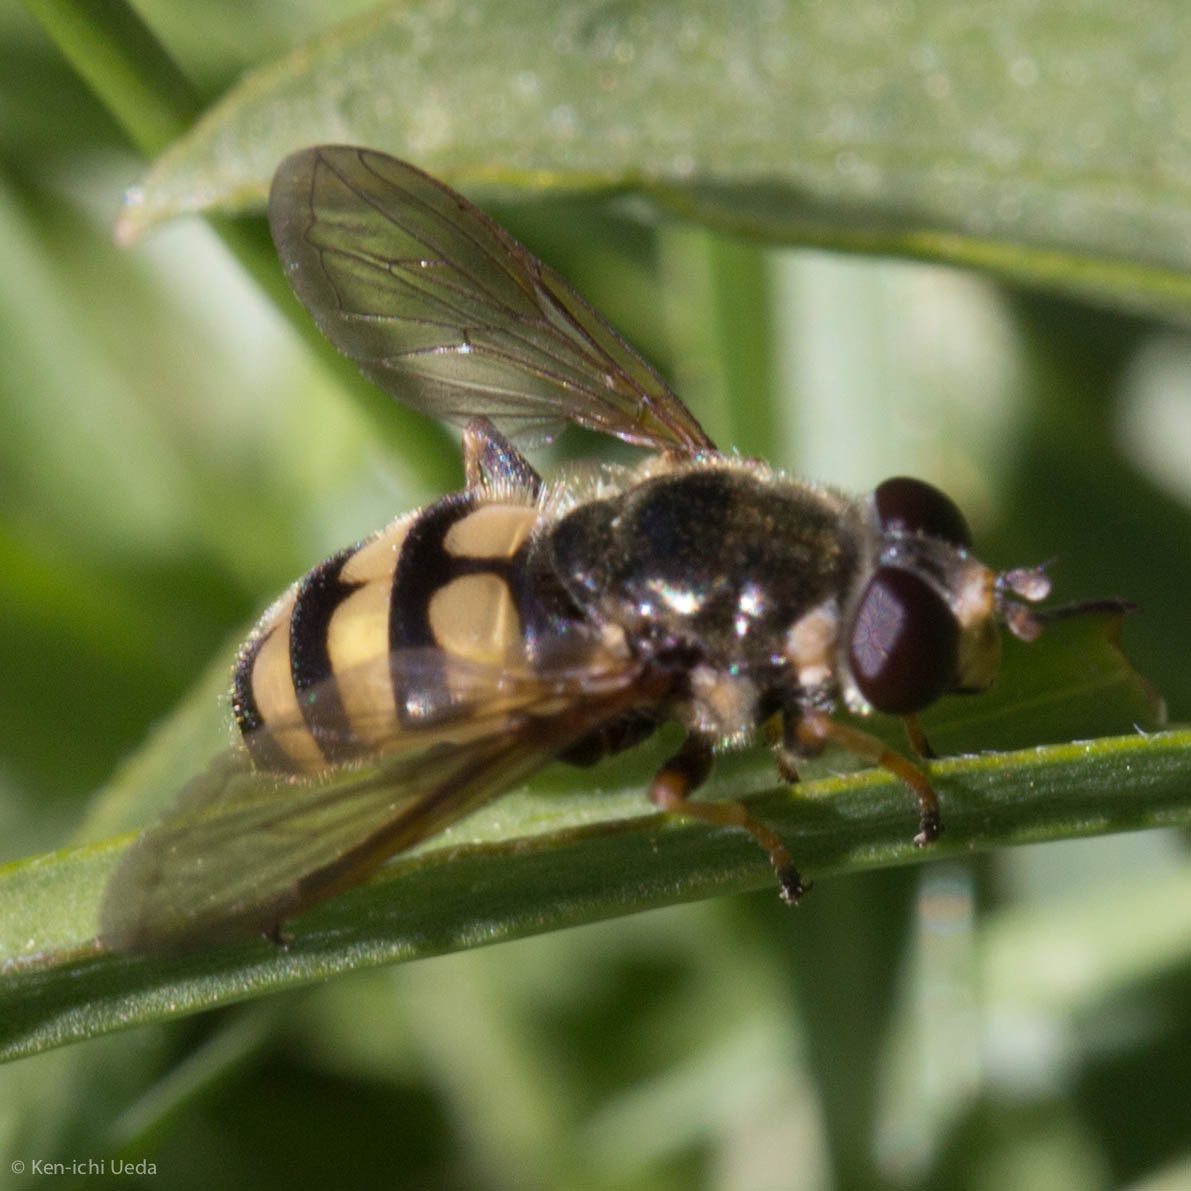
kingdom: Animalia
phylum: Arthropoda
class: Insecta
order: Diptera
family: Syrphidae
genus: Blera
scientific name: Blera scitula
